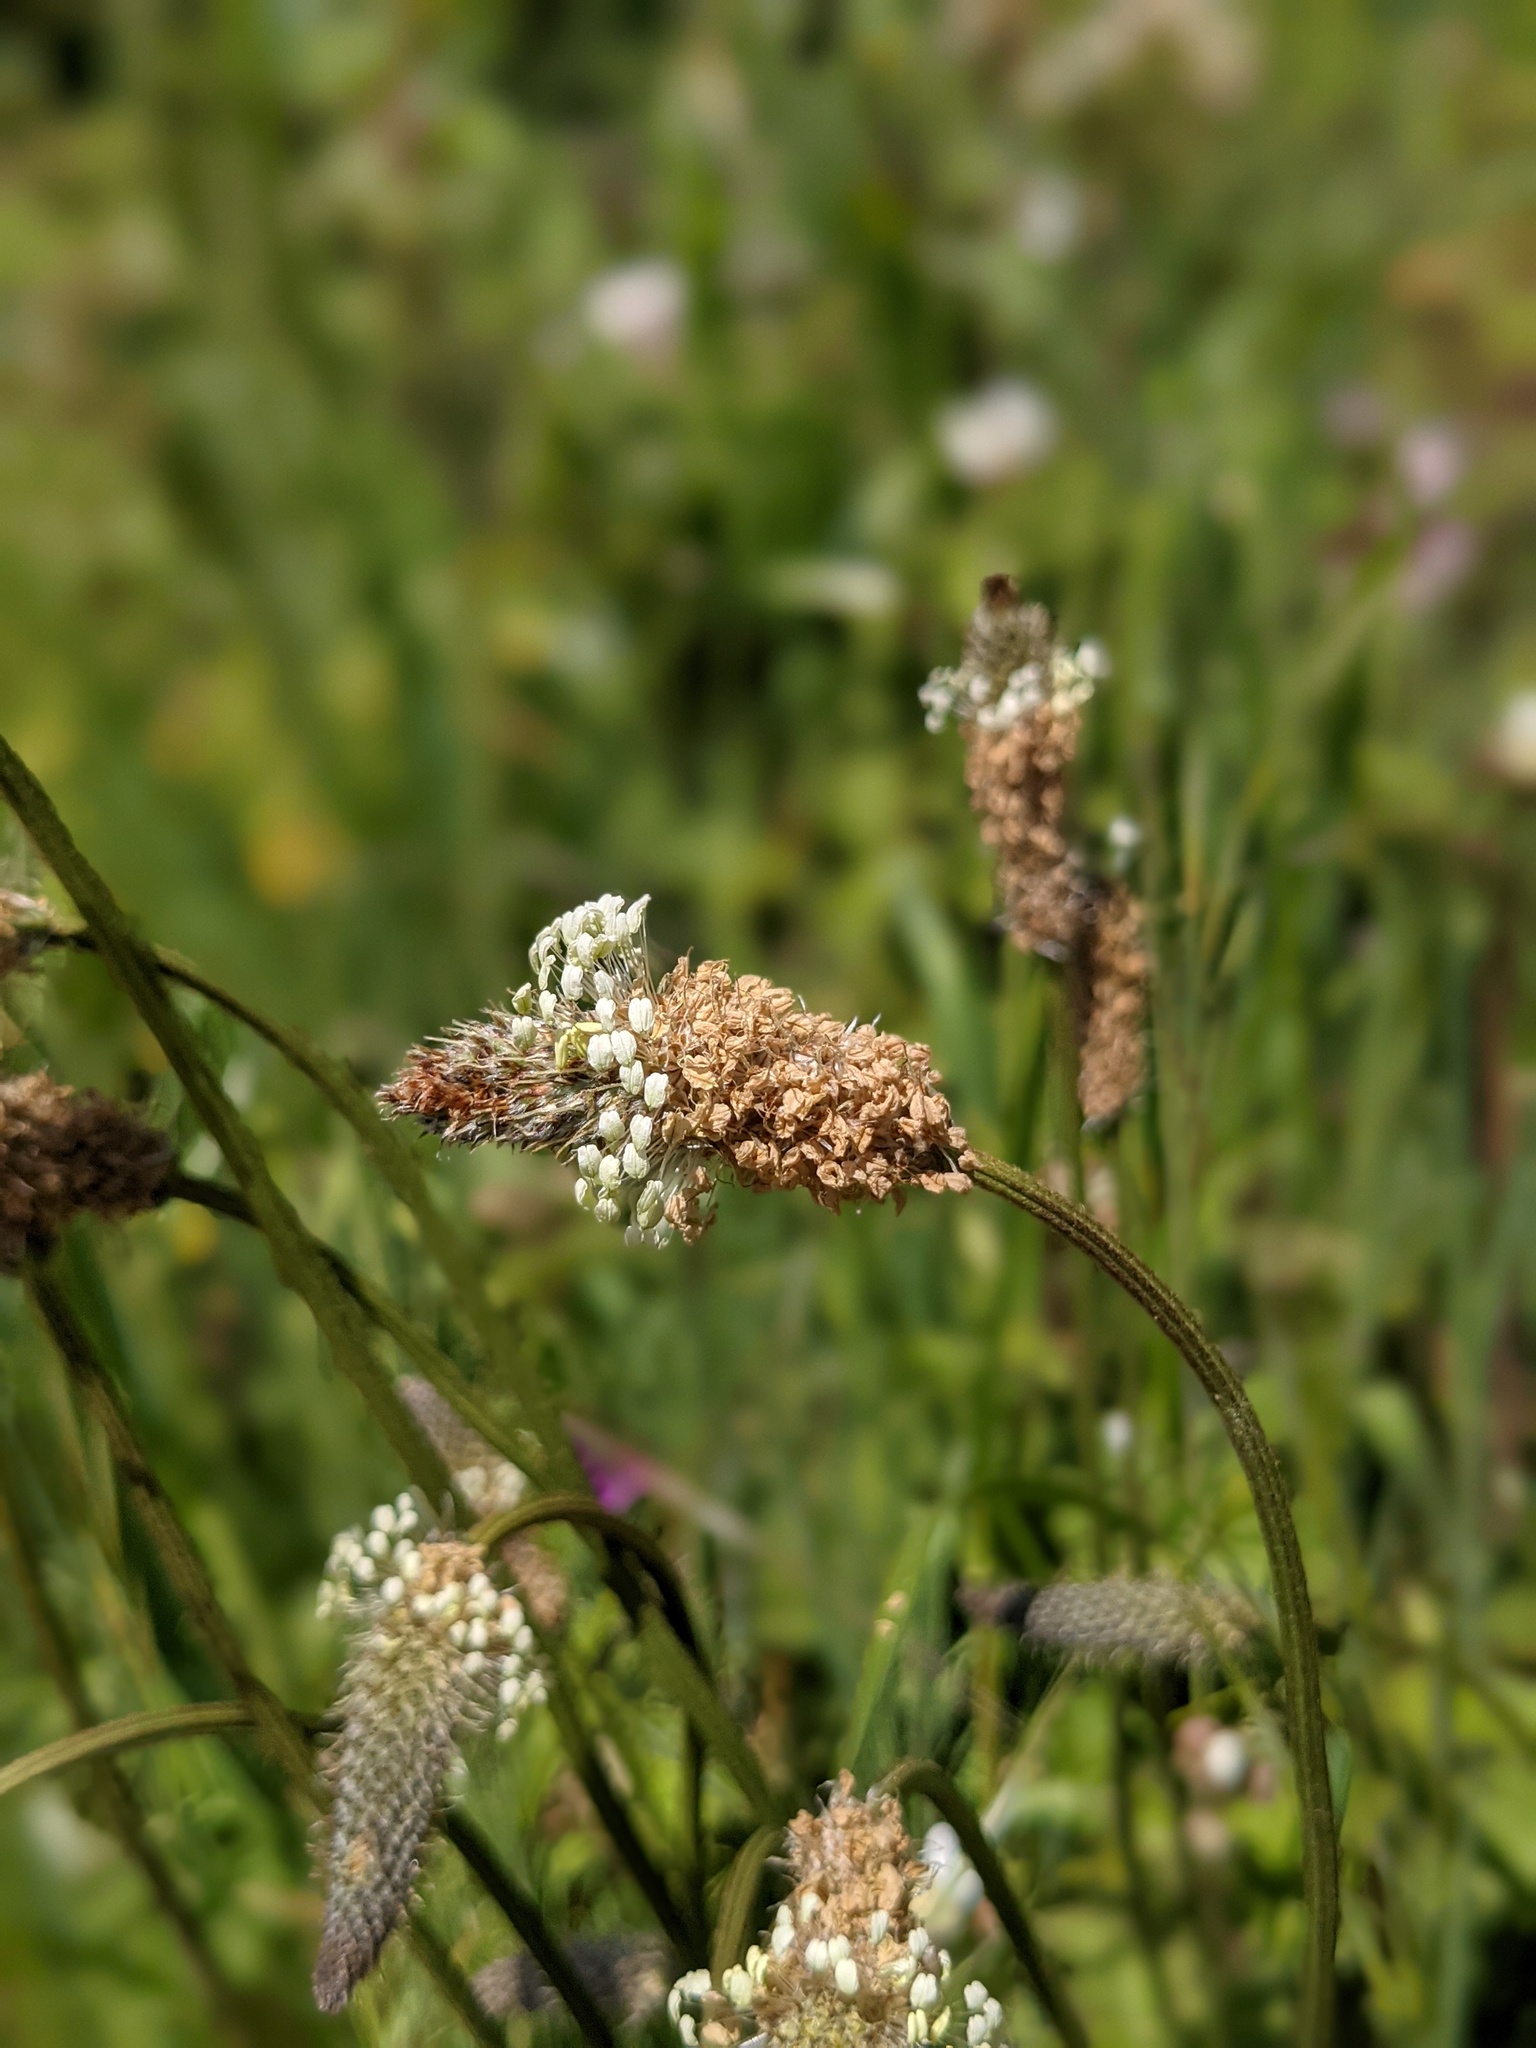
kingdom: Plantae
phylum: Tracheophyta
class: Magnoliopsida
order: Lamiales
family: Plantaginaceae
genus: Plantago
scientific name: Plantago lanceolata
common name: Ribwort plantain
